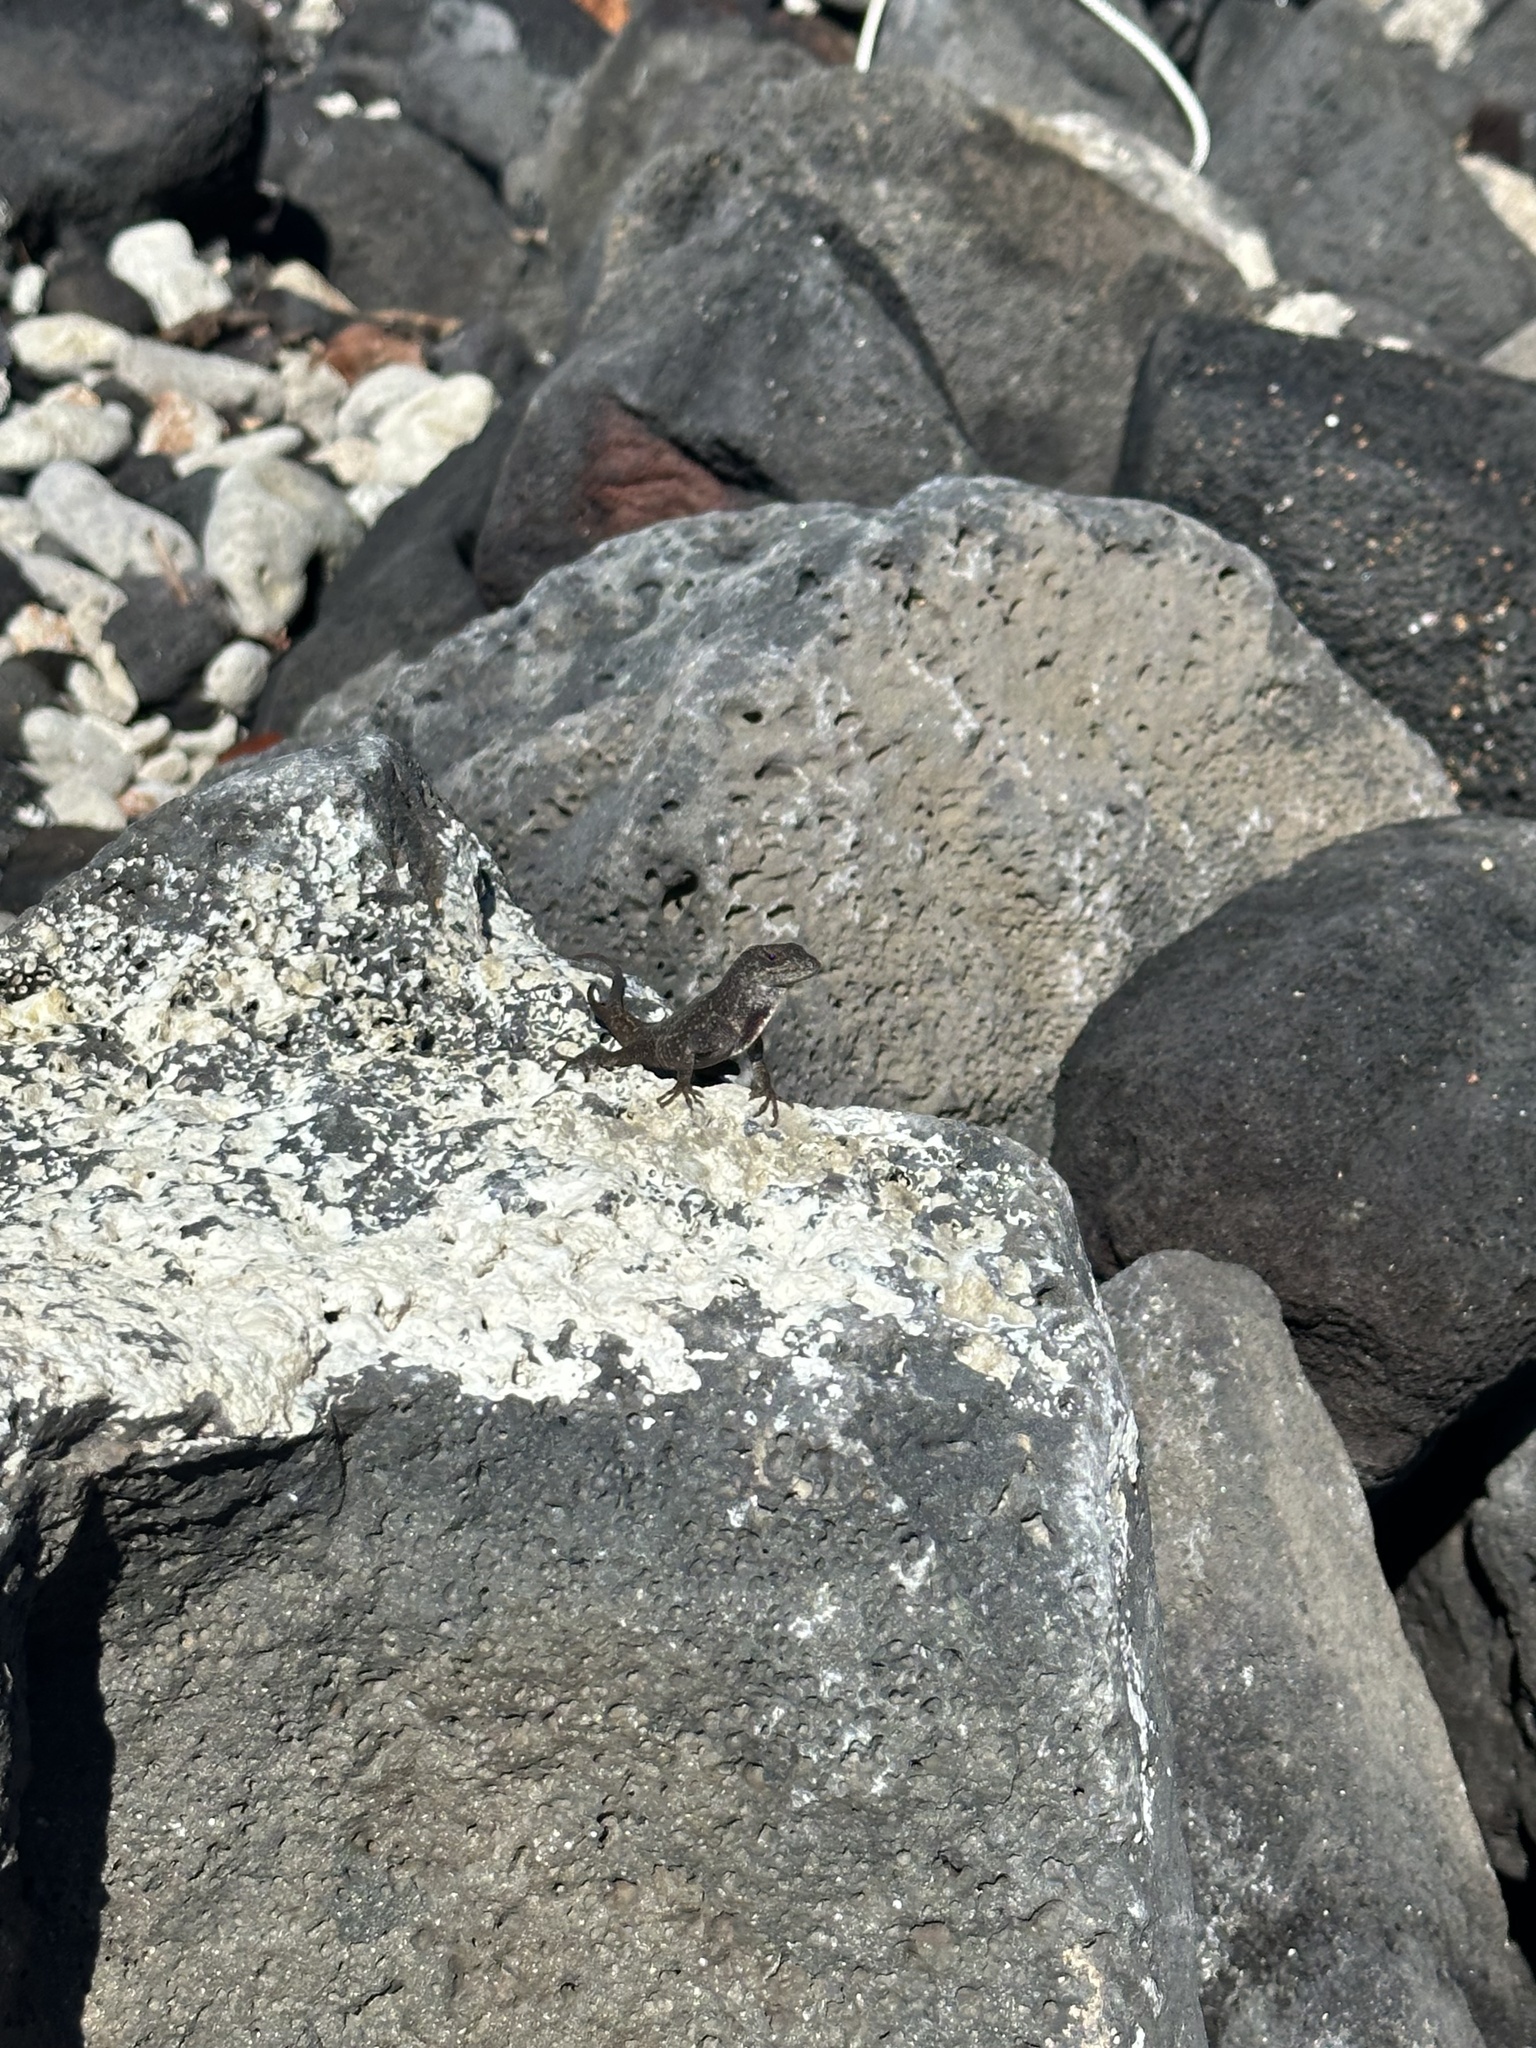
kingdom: Animalia
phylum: Chordata
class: Squamata
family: Dactyloidae
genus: Anolis
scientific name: Anolis sagrei
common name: Brown anole
